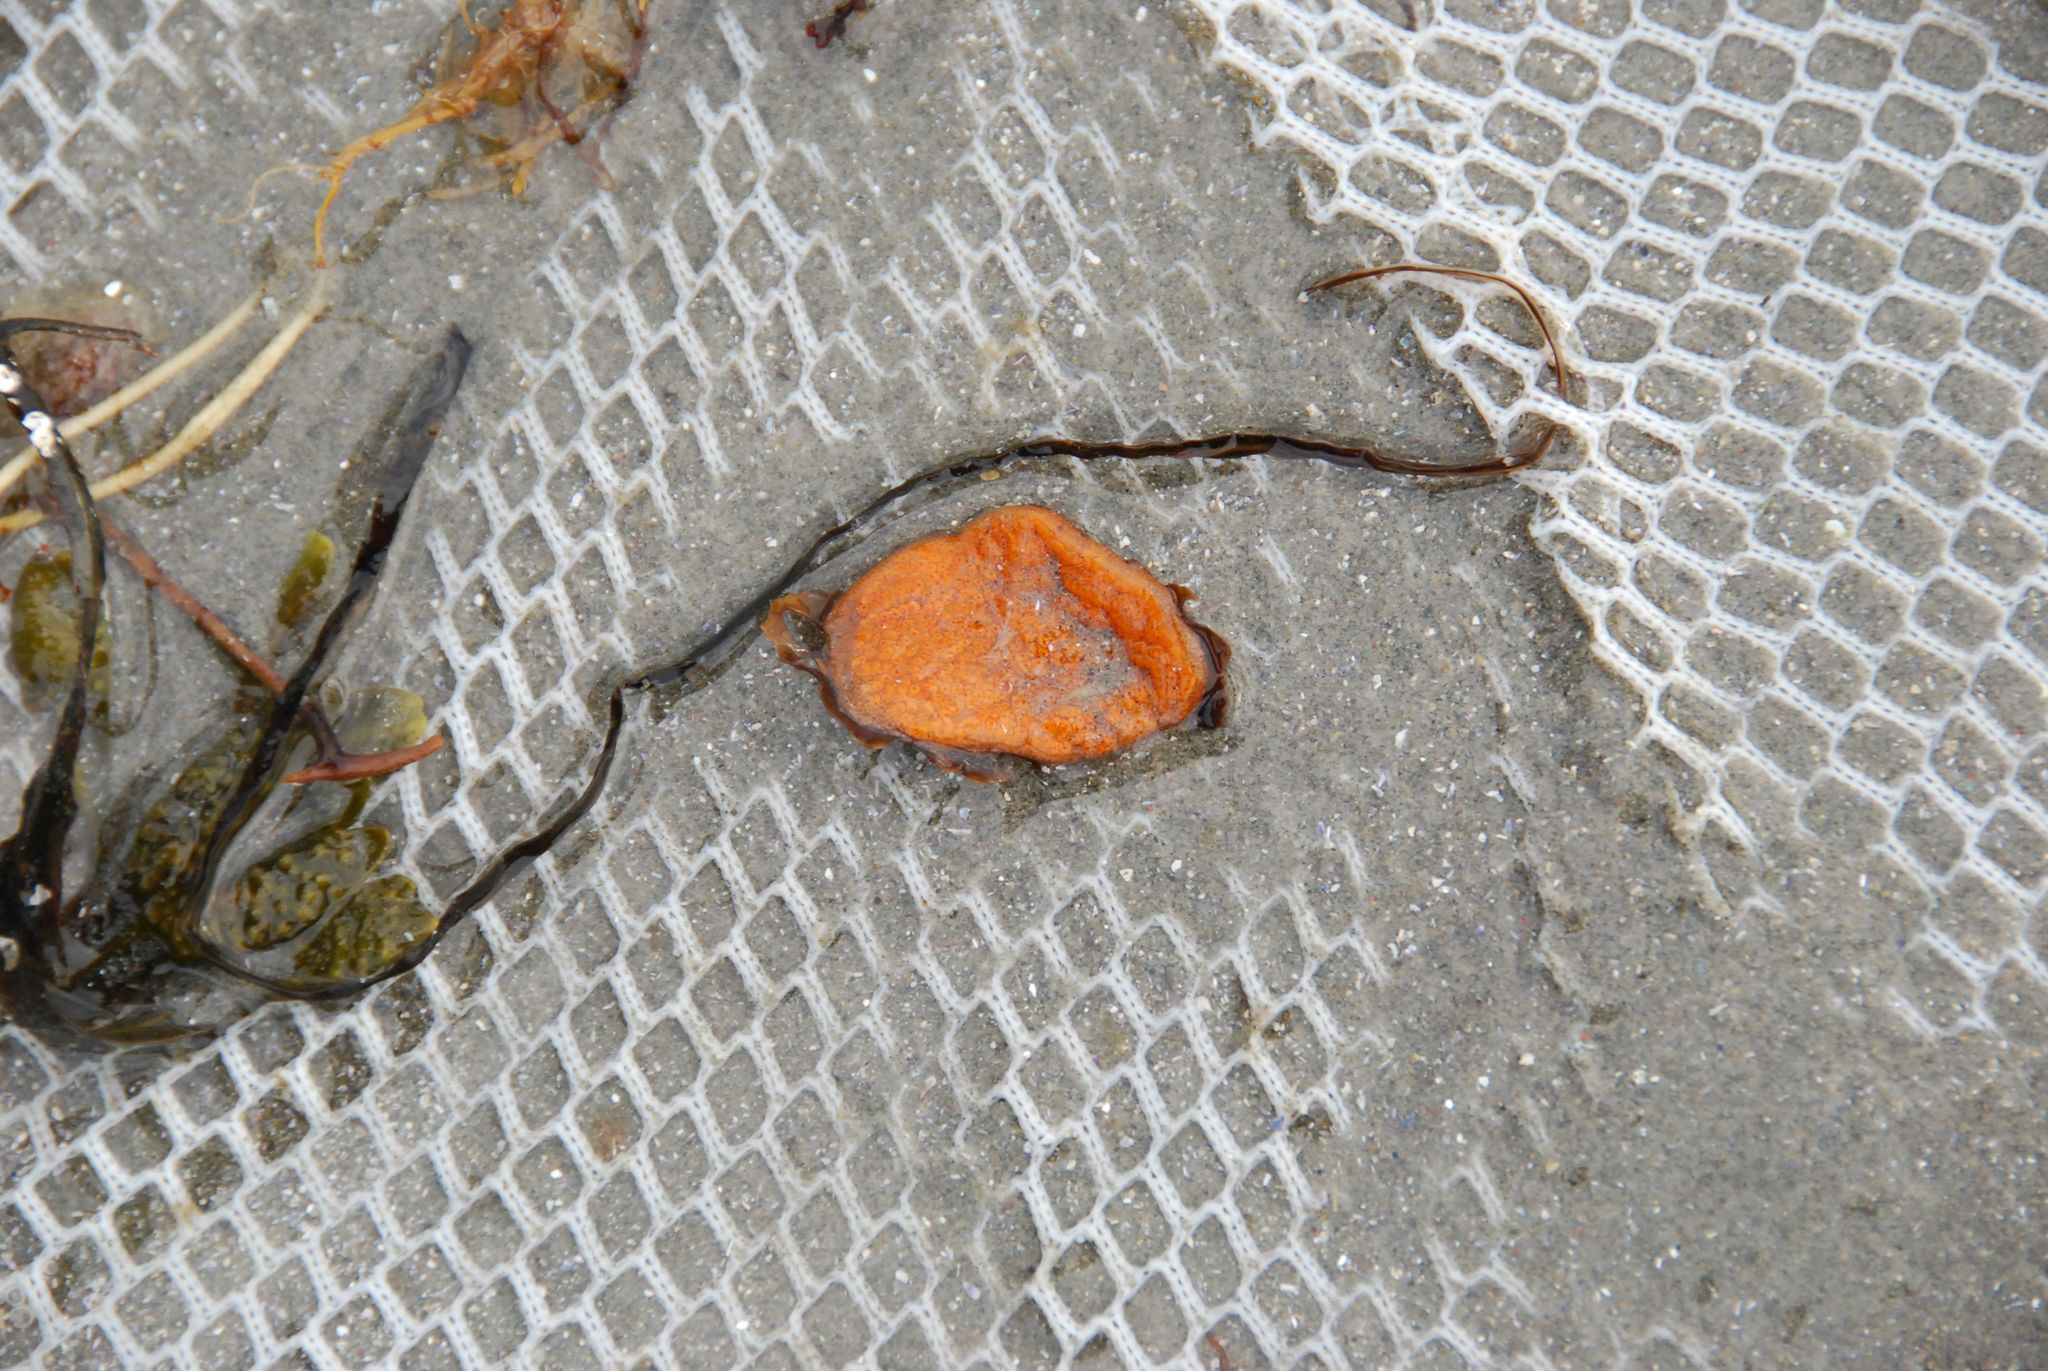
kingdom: Animalia
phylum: Chordata
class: Ascidiacea
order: Stolidobranchia
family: Styelidae
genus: Botrylloides
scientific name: Botrylloides violaceus
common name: Colonial sea squirt
